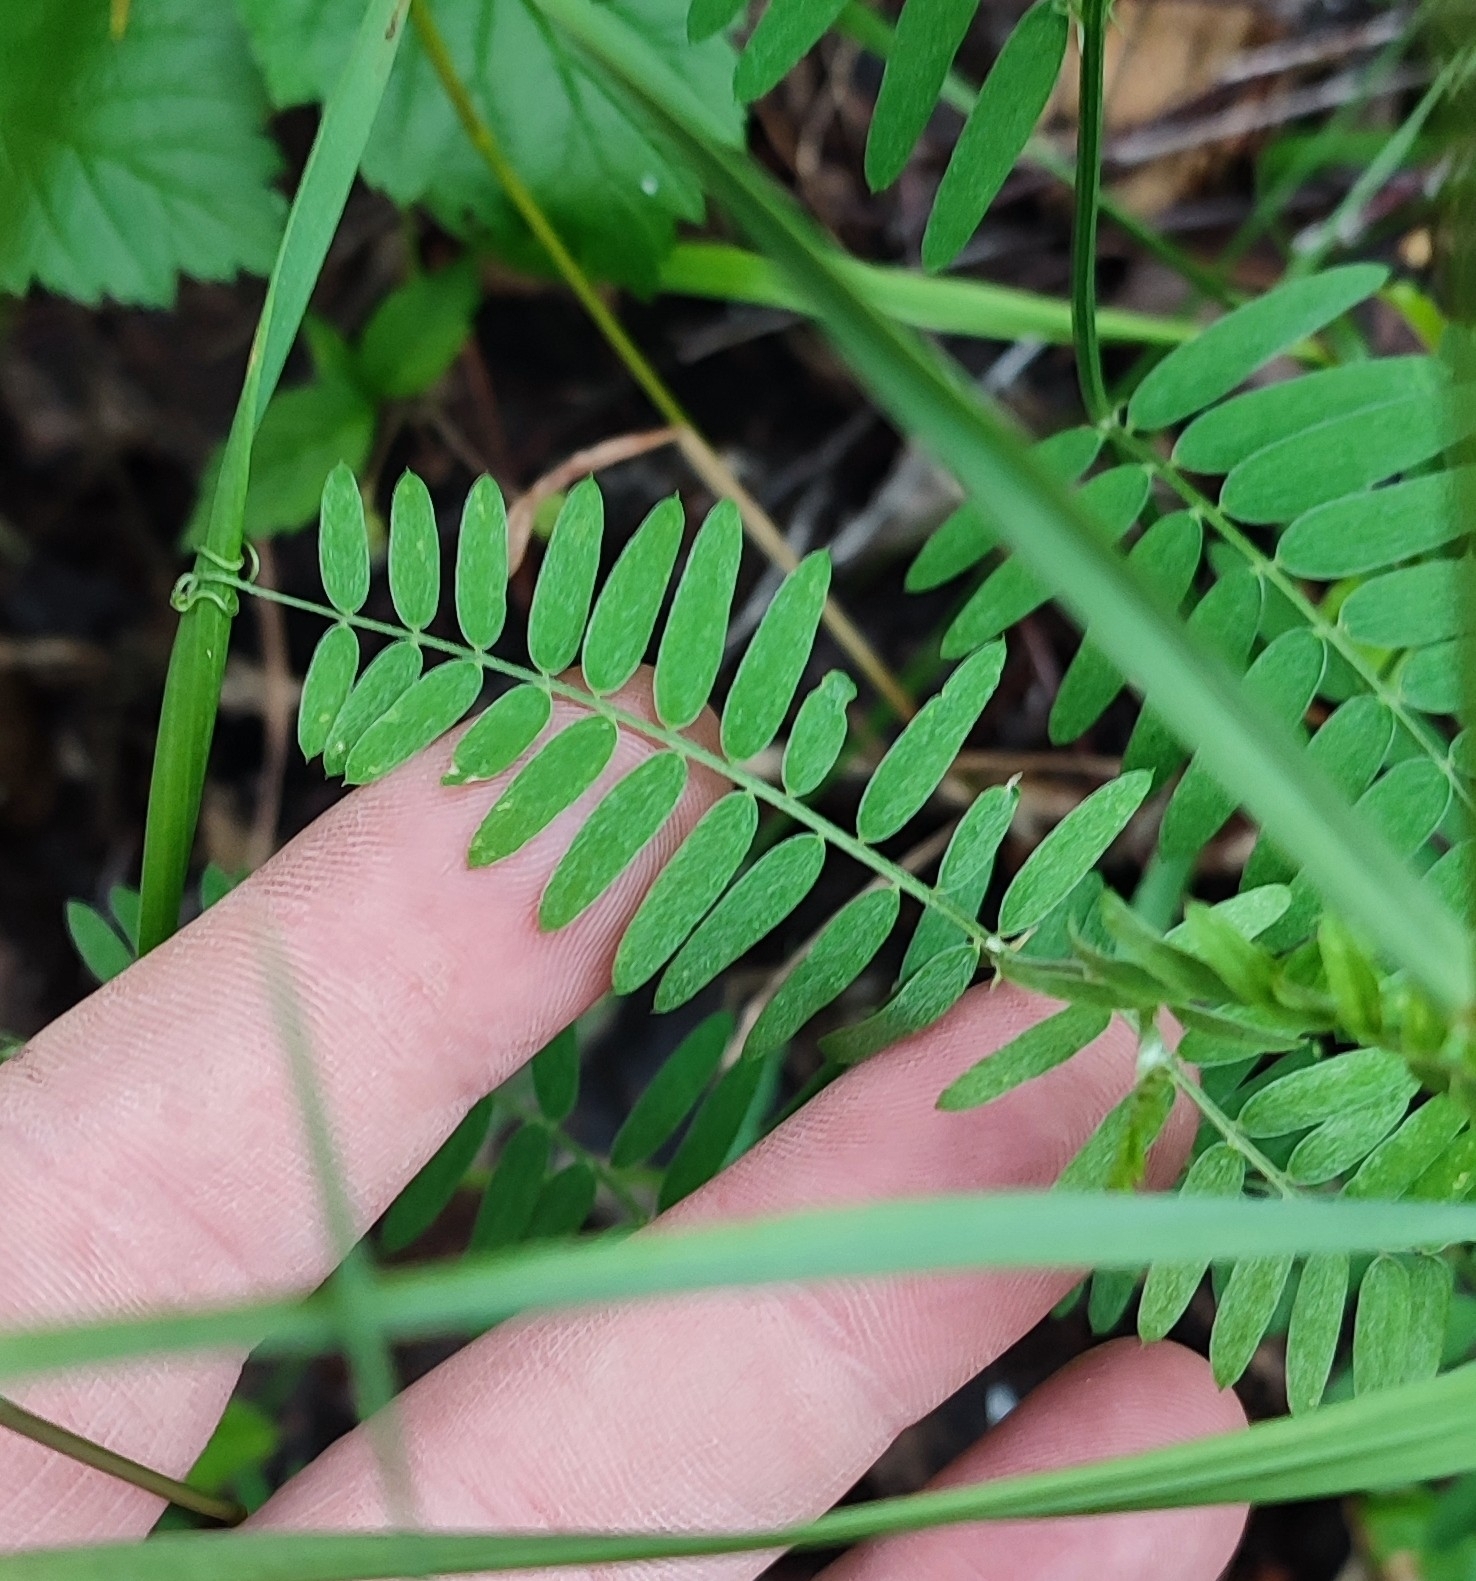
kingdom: Plantae
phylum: Tracheophyta
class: Magnoliopsida
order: Fabales
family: Fabaceae
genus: Vicia
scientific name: Vicia cracca
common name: Bird vetch
